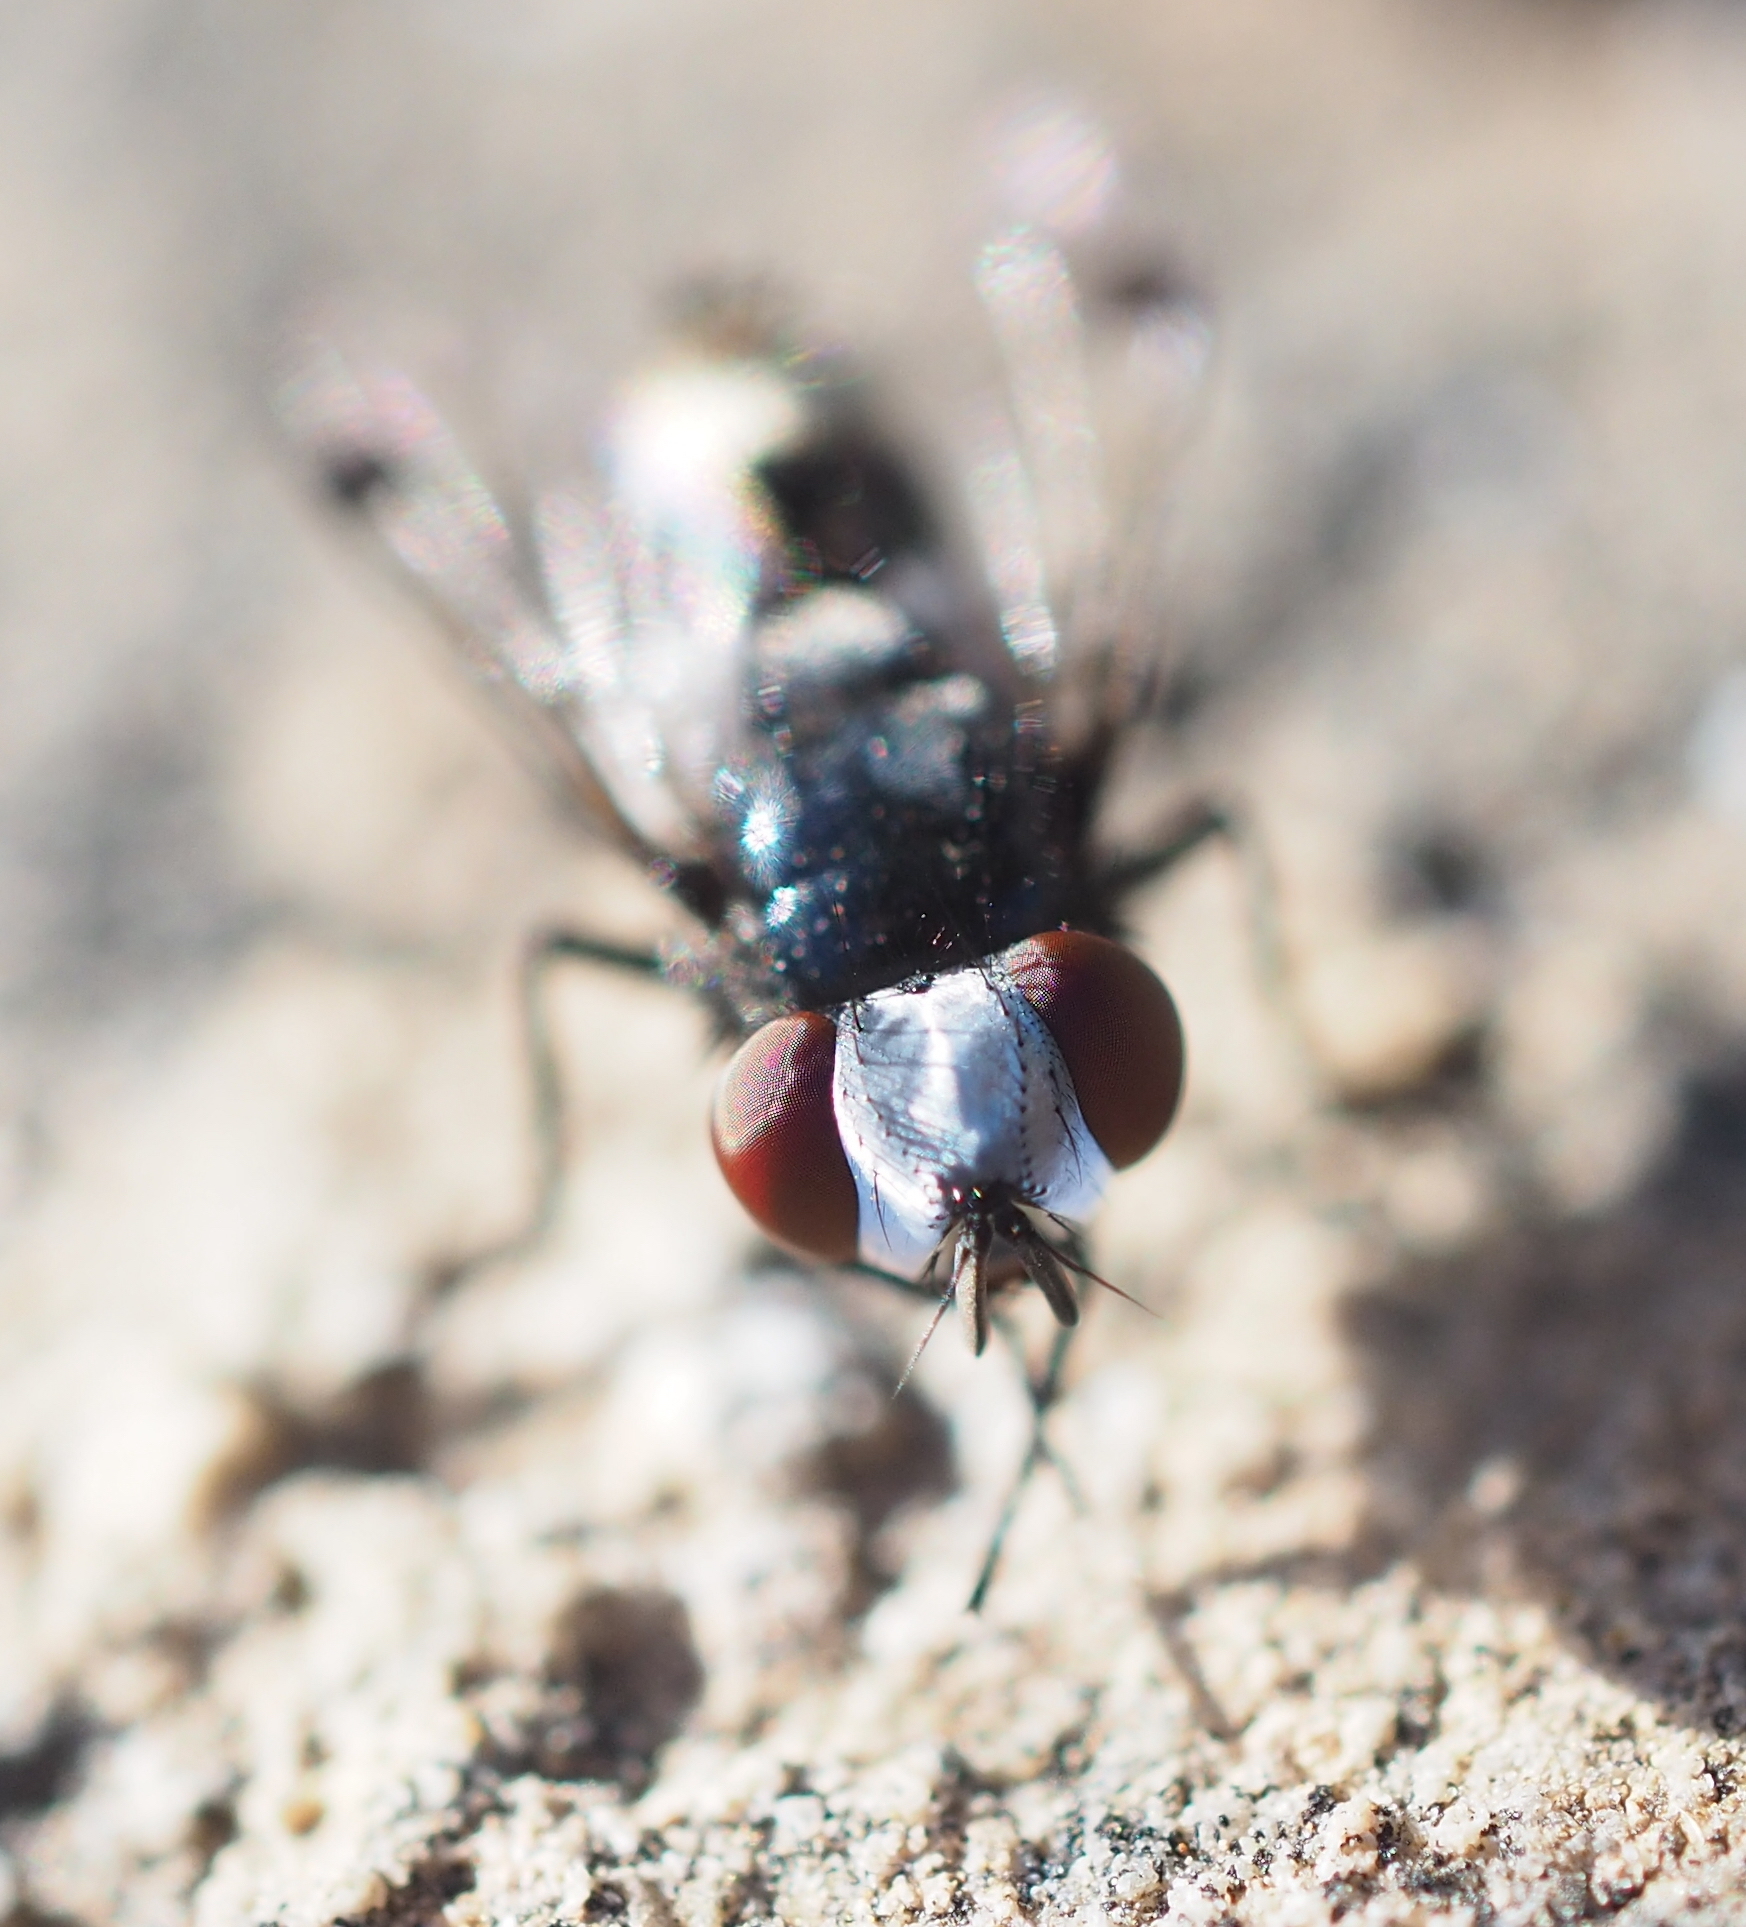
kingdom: Animalia
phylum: Arthropoda
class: Insecta
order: Diptera
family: Sarcophagidae
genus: Sphenometopa
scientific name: Sphenometopa fastuosa
